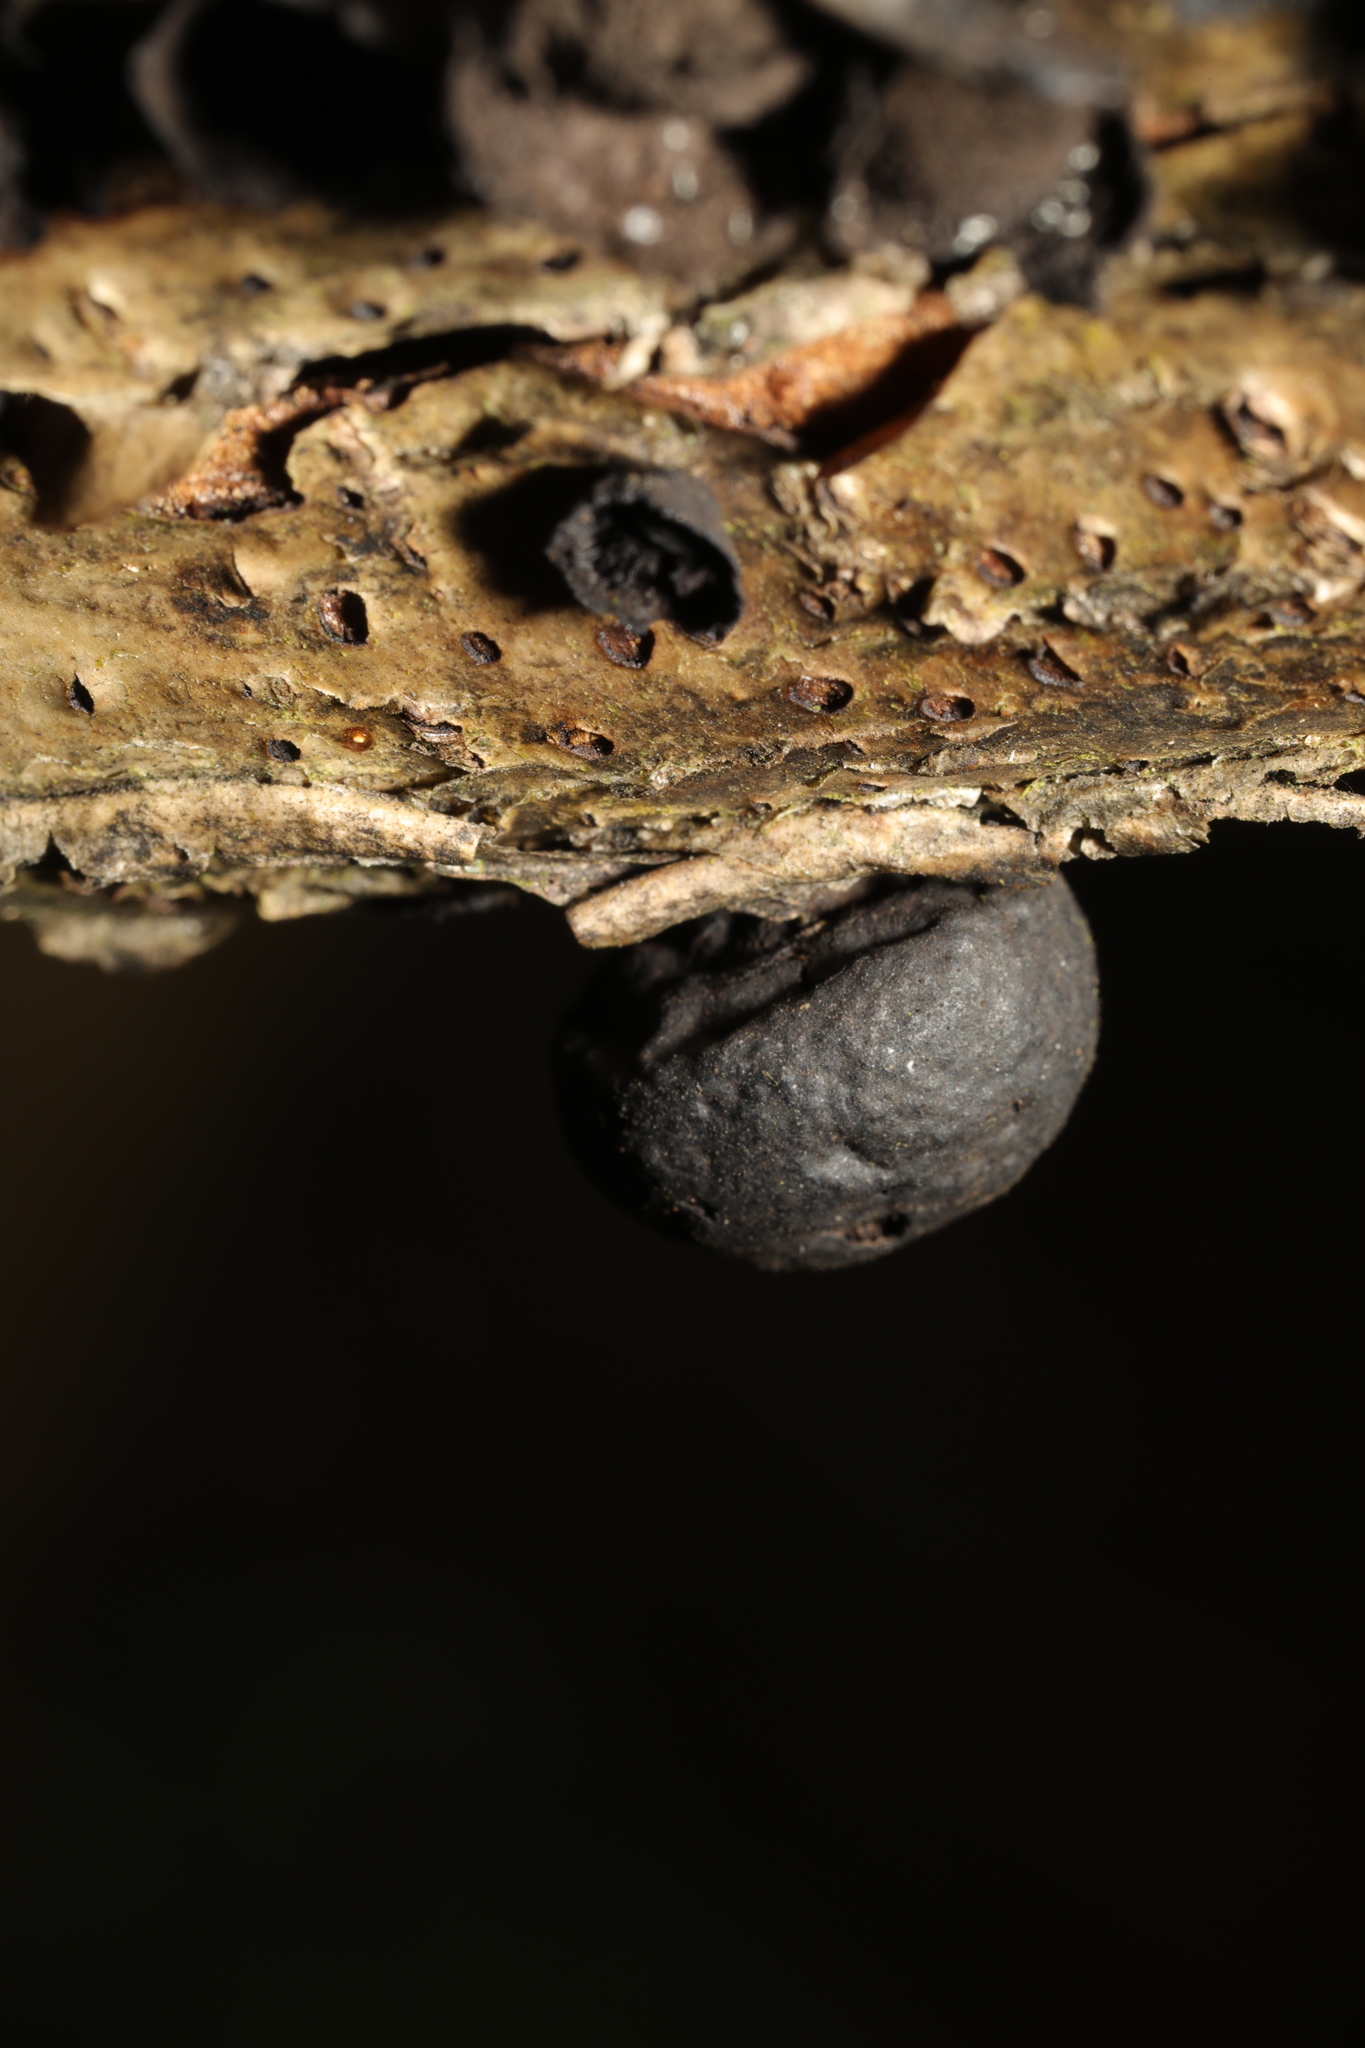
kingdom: Fungi
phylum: Ascomycota
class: Sordariomycetes
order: Xylariales
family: Hypoxylaceae
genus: Jackrogersella
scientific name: Jackrogersella multiformis
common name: Birch woodwart
